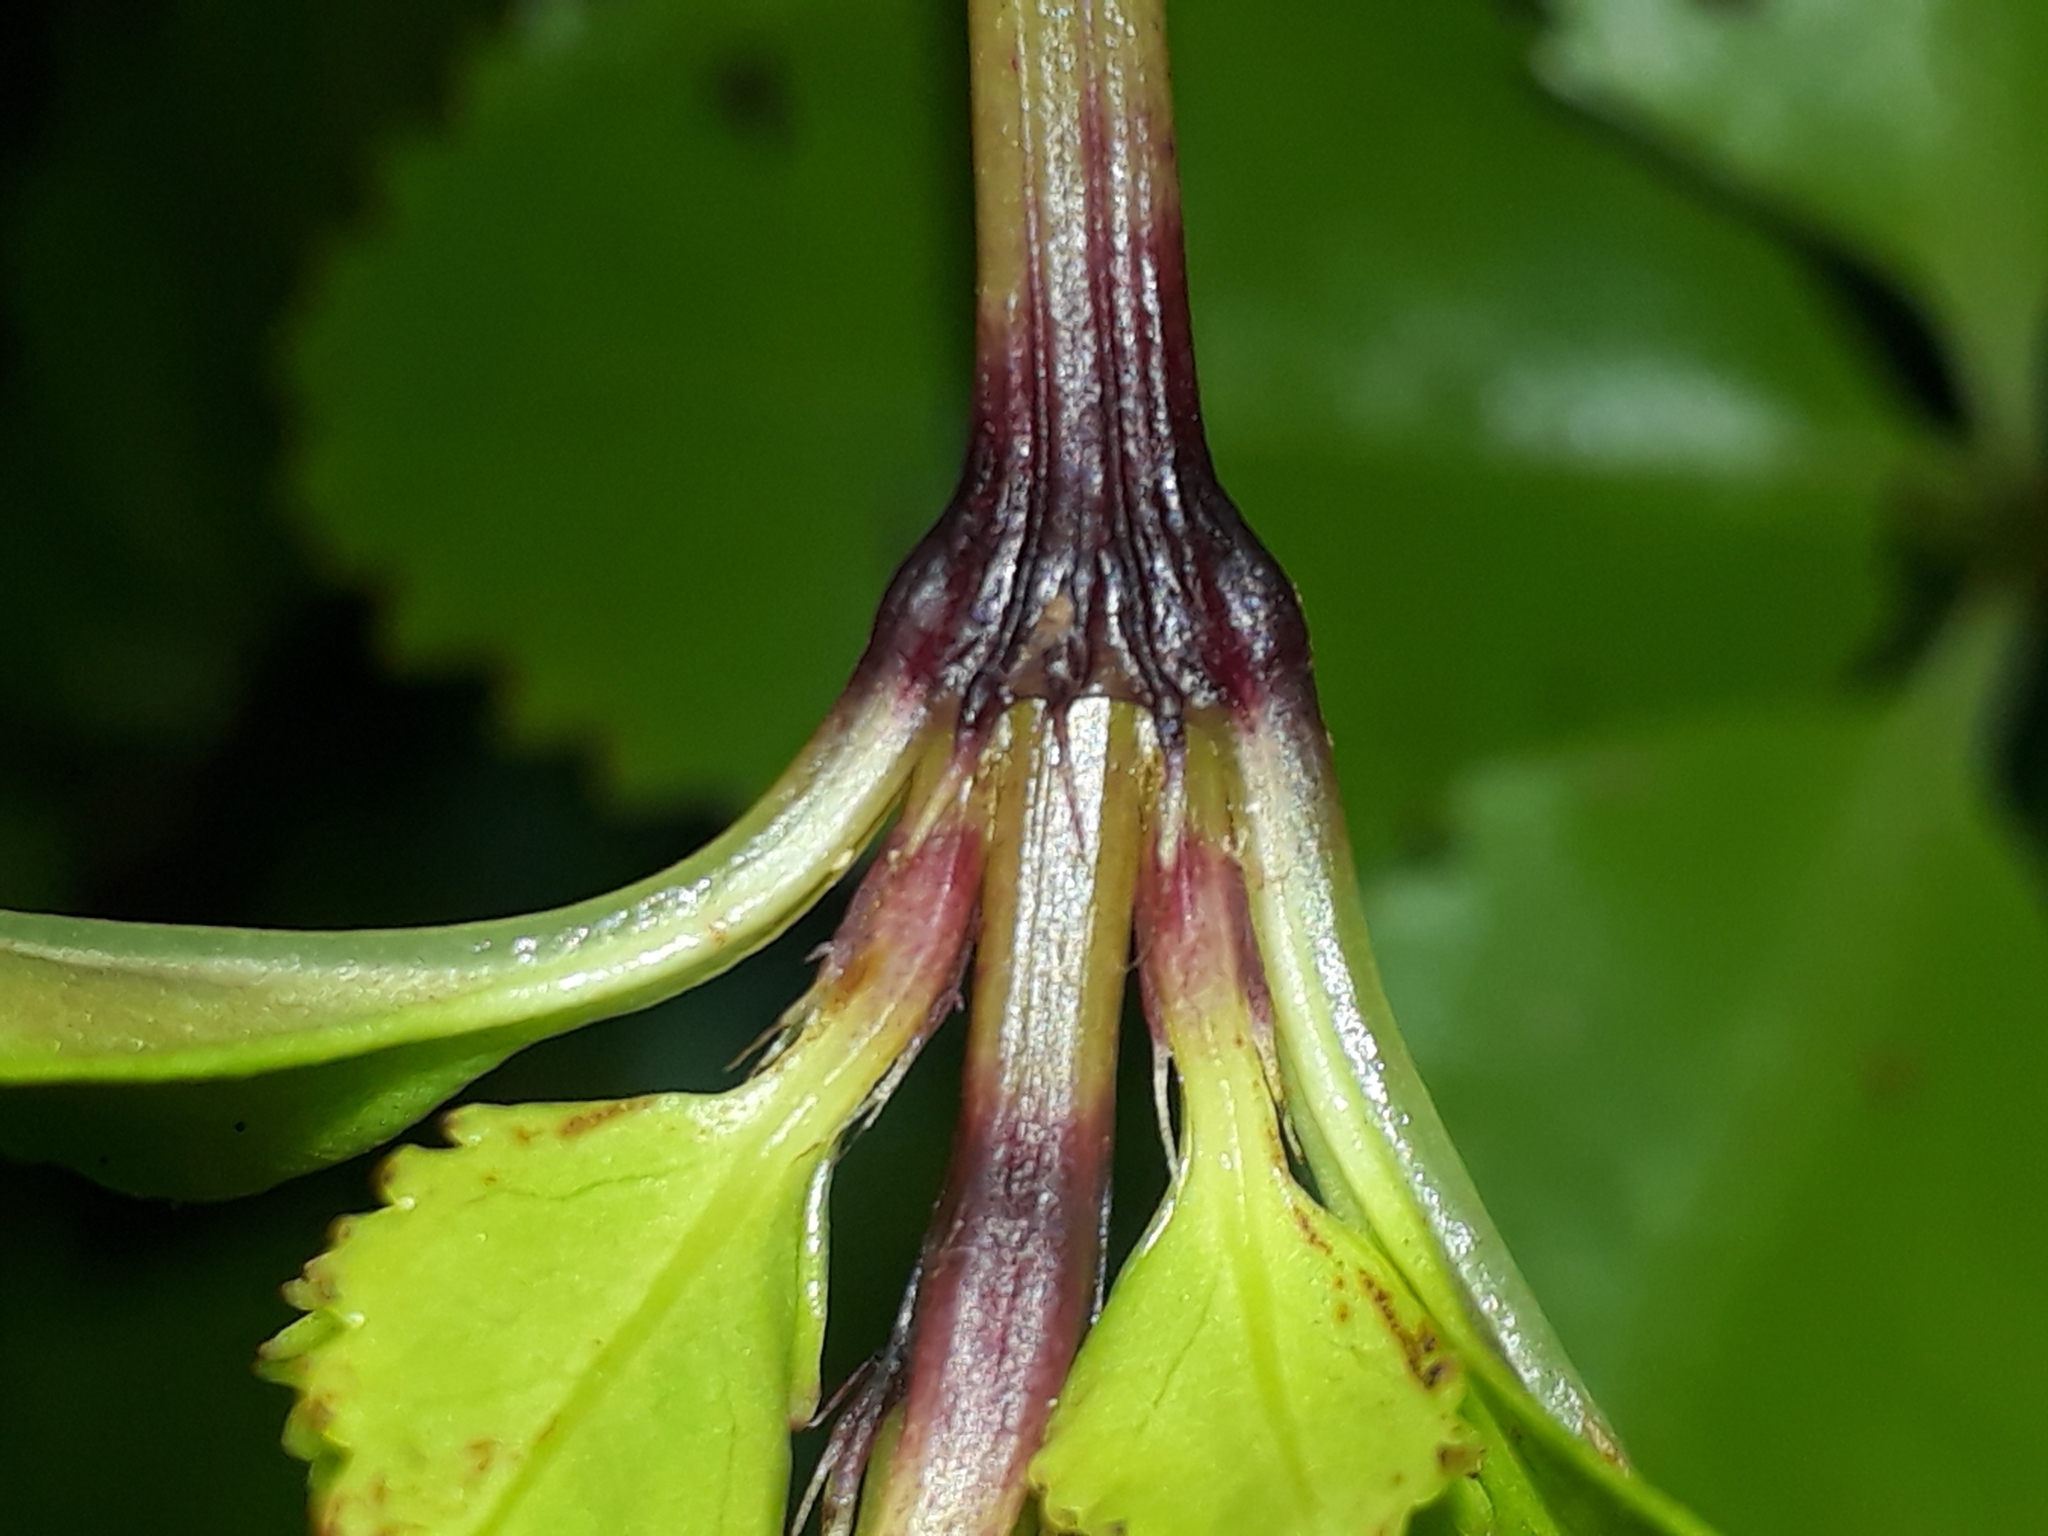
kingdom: Plantae
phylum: Tracheophyta
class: Magnoliopsida
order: Chloranthales
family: Chloranthaceae
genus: Ascarina
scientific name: Ascarina lucida
